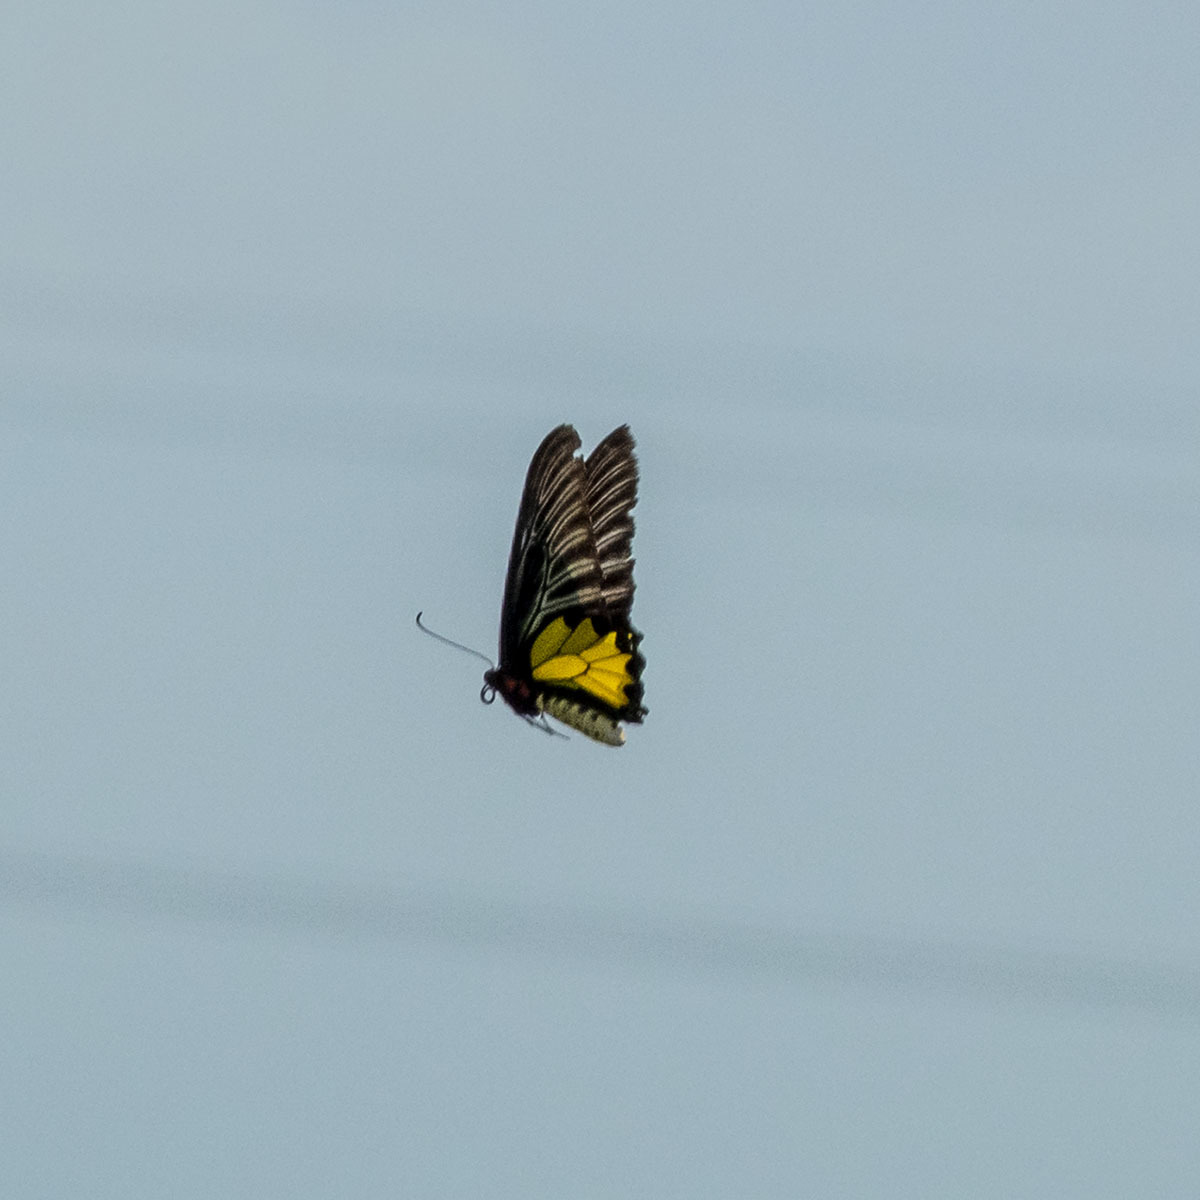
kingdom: Animalia
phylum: Arthropoda
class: Insecta
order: Lepidoptera
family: Papilionidae
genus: Troides
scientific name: Troides minos
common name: Malabar birdwing
